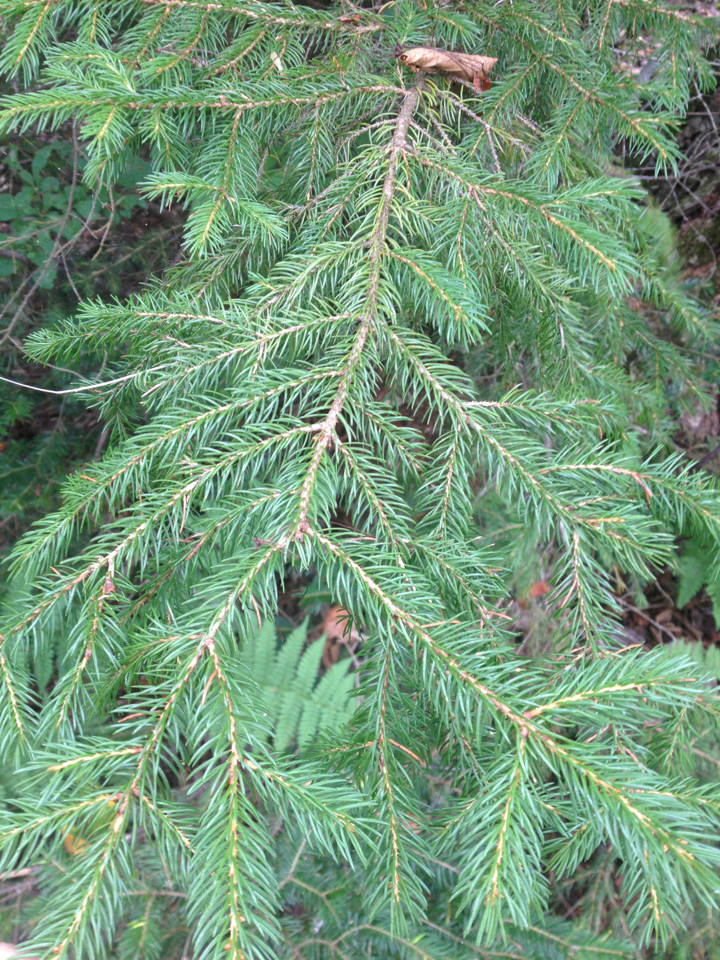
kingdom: Plantae
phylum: Tracheophyta
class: Pinopsida
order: Pinales
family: Pinaceae
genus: Picea
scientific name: Picea rubens
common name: Red spruce
